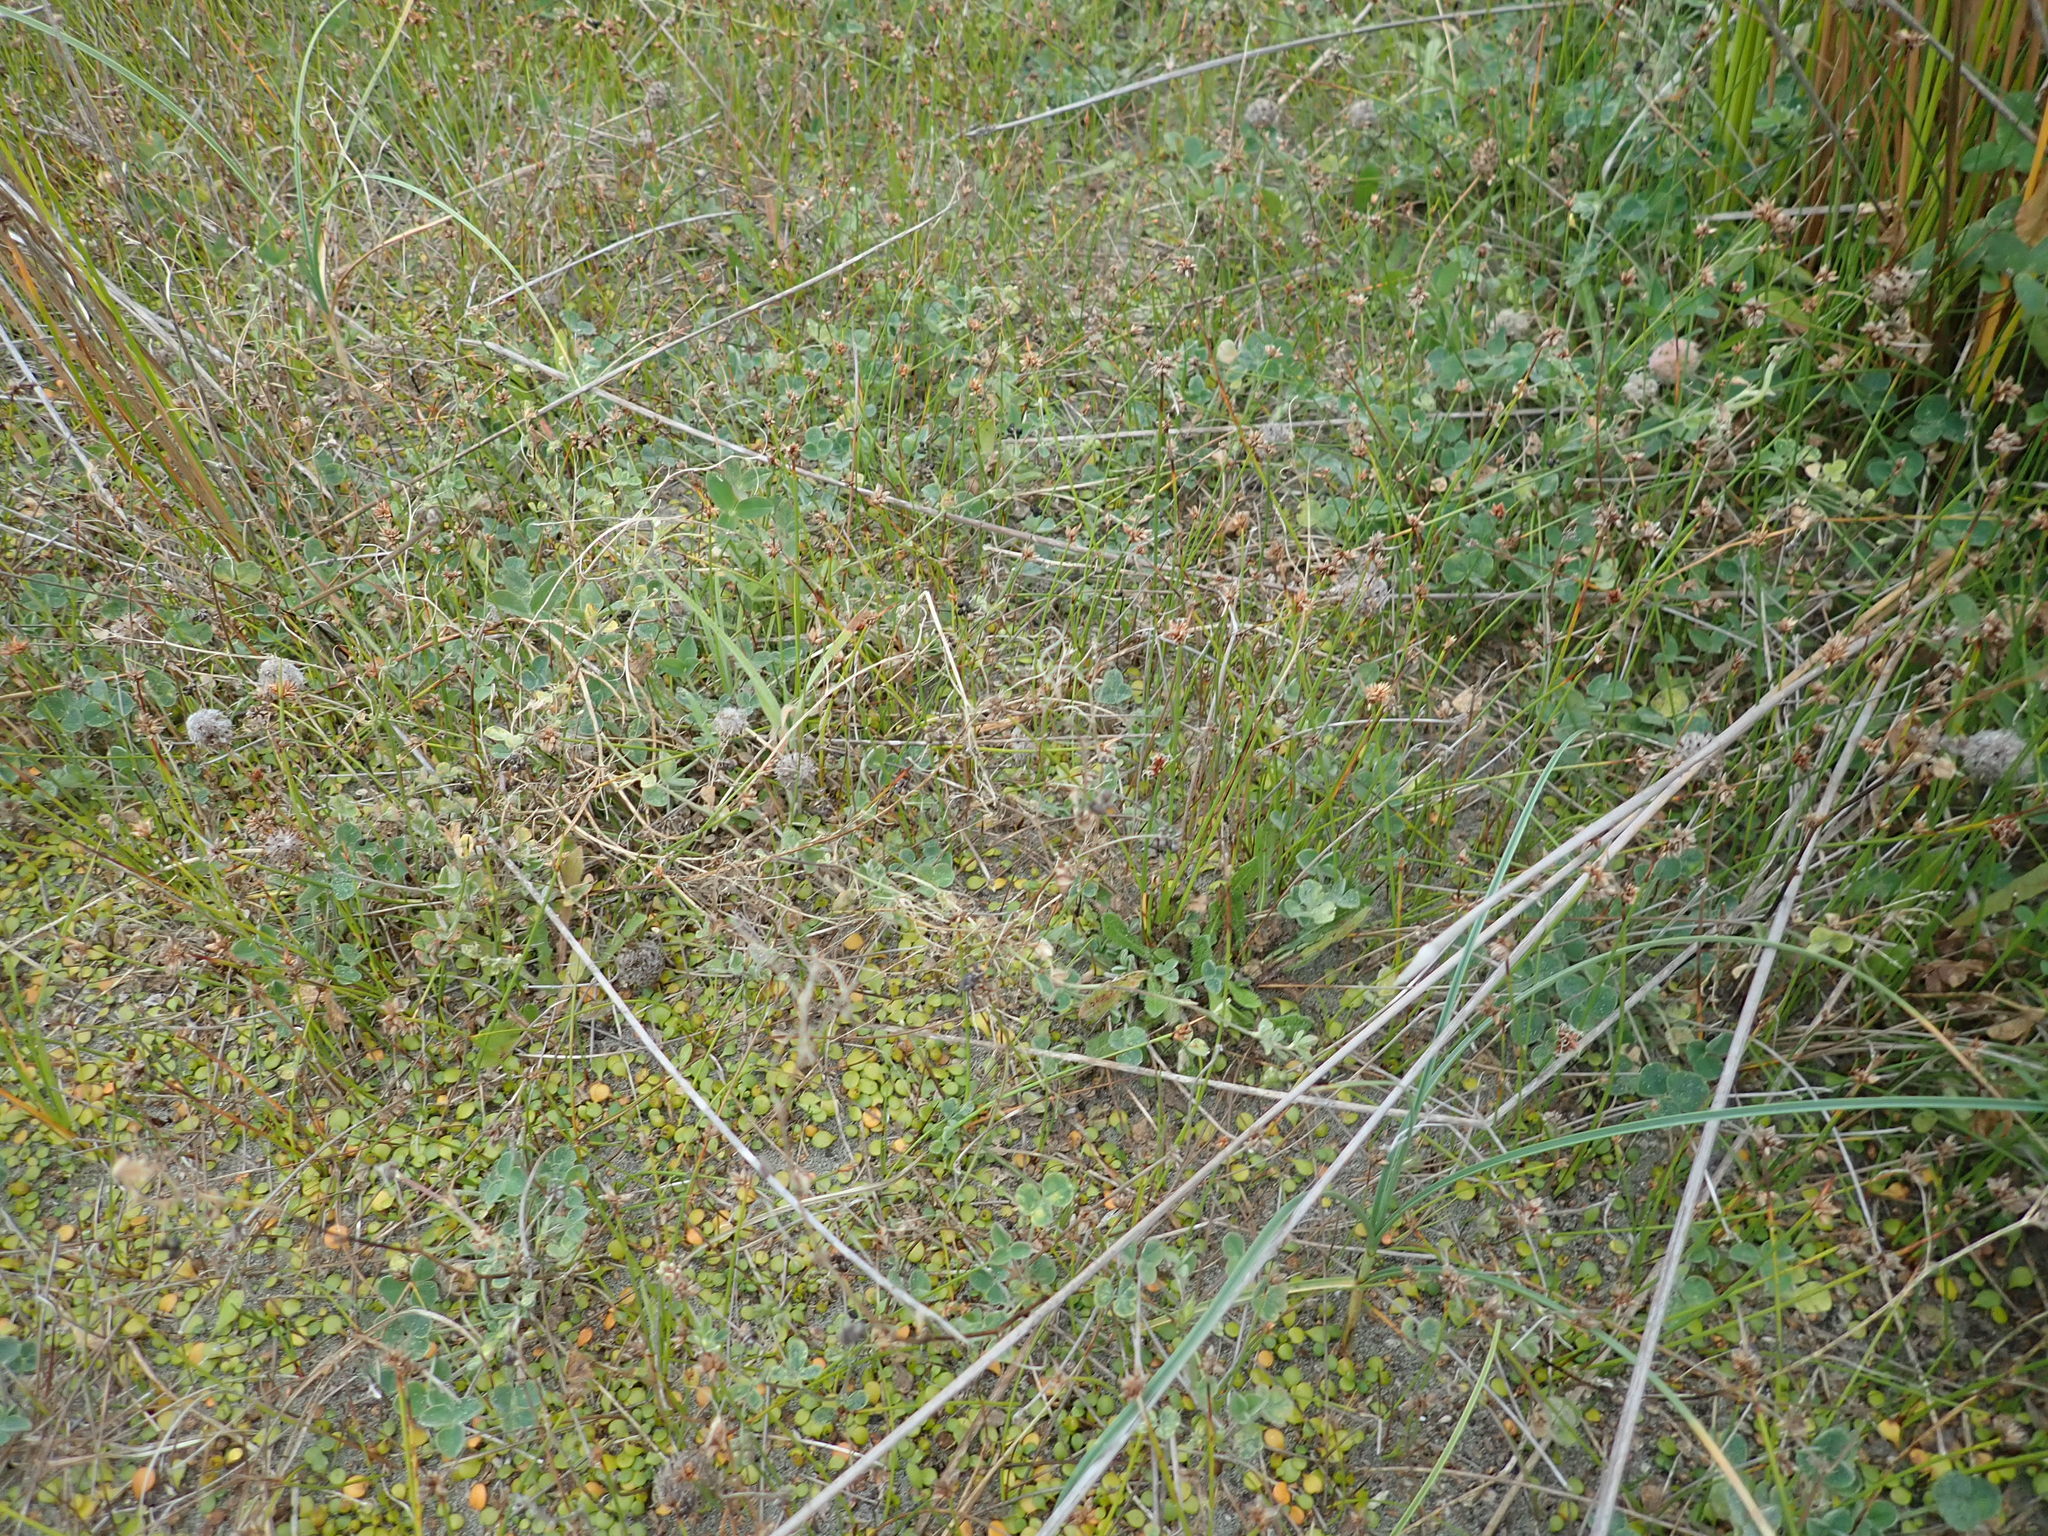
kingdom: Plantae
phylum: Tracheophyta
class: Magnoliopsida
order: Fabales
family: Fabaceae
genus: Trifolium
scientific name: Trifolium fragiferum
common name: Strawberry clover
